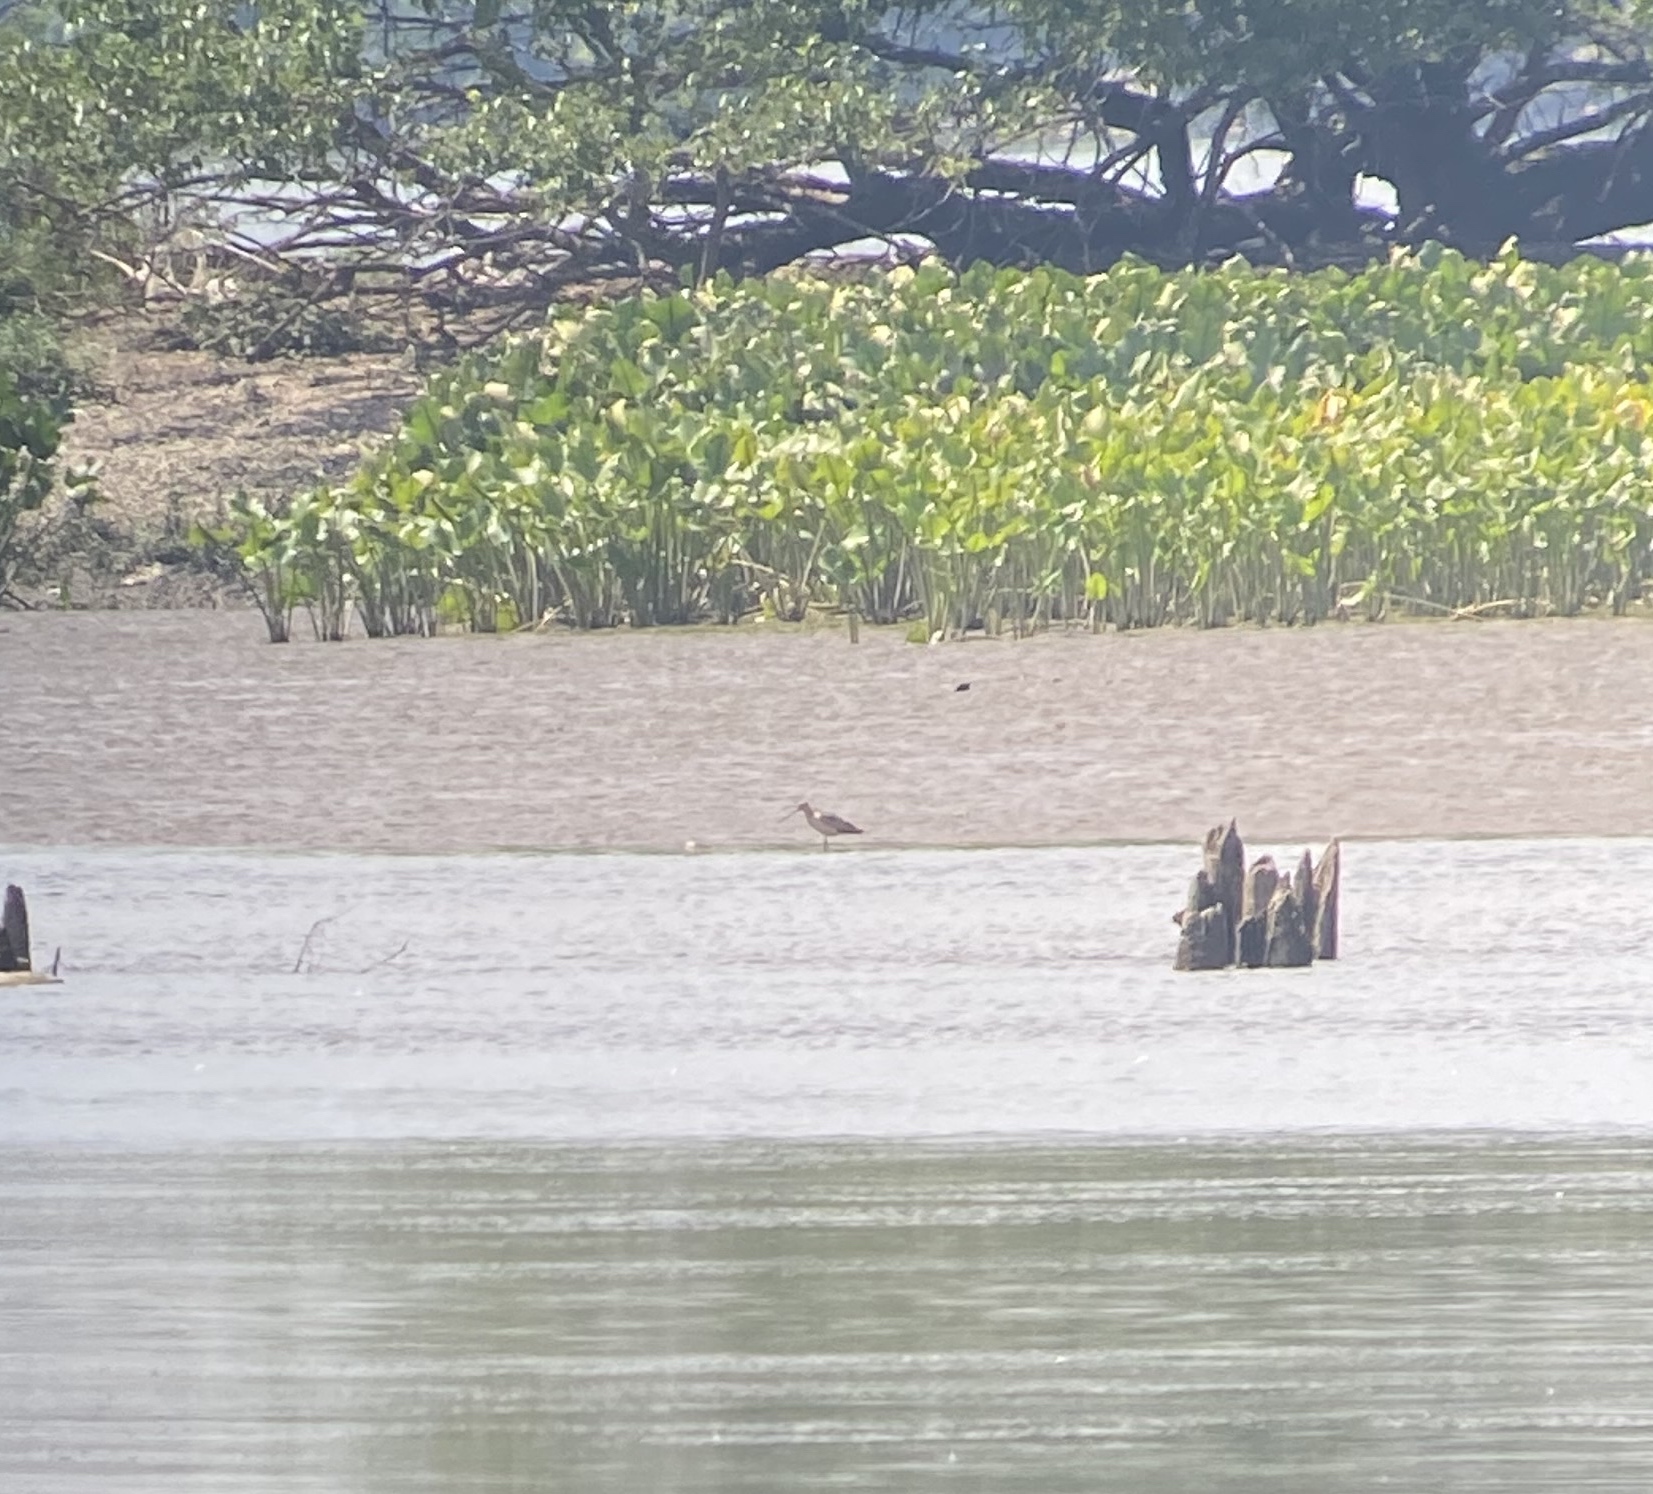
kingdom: Animalia
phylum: Chordata
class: Aves
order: Charadriiformes
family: Scolopacidae
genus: Limosa
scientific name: Limosa fedoa
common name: Marbled godwit
